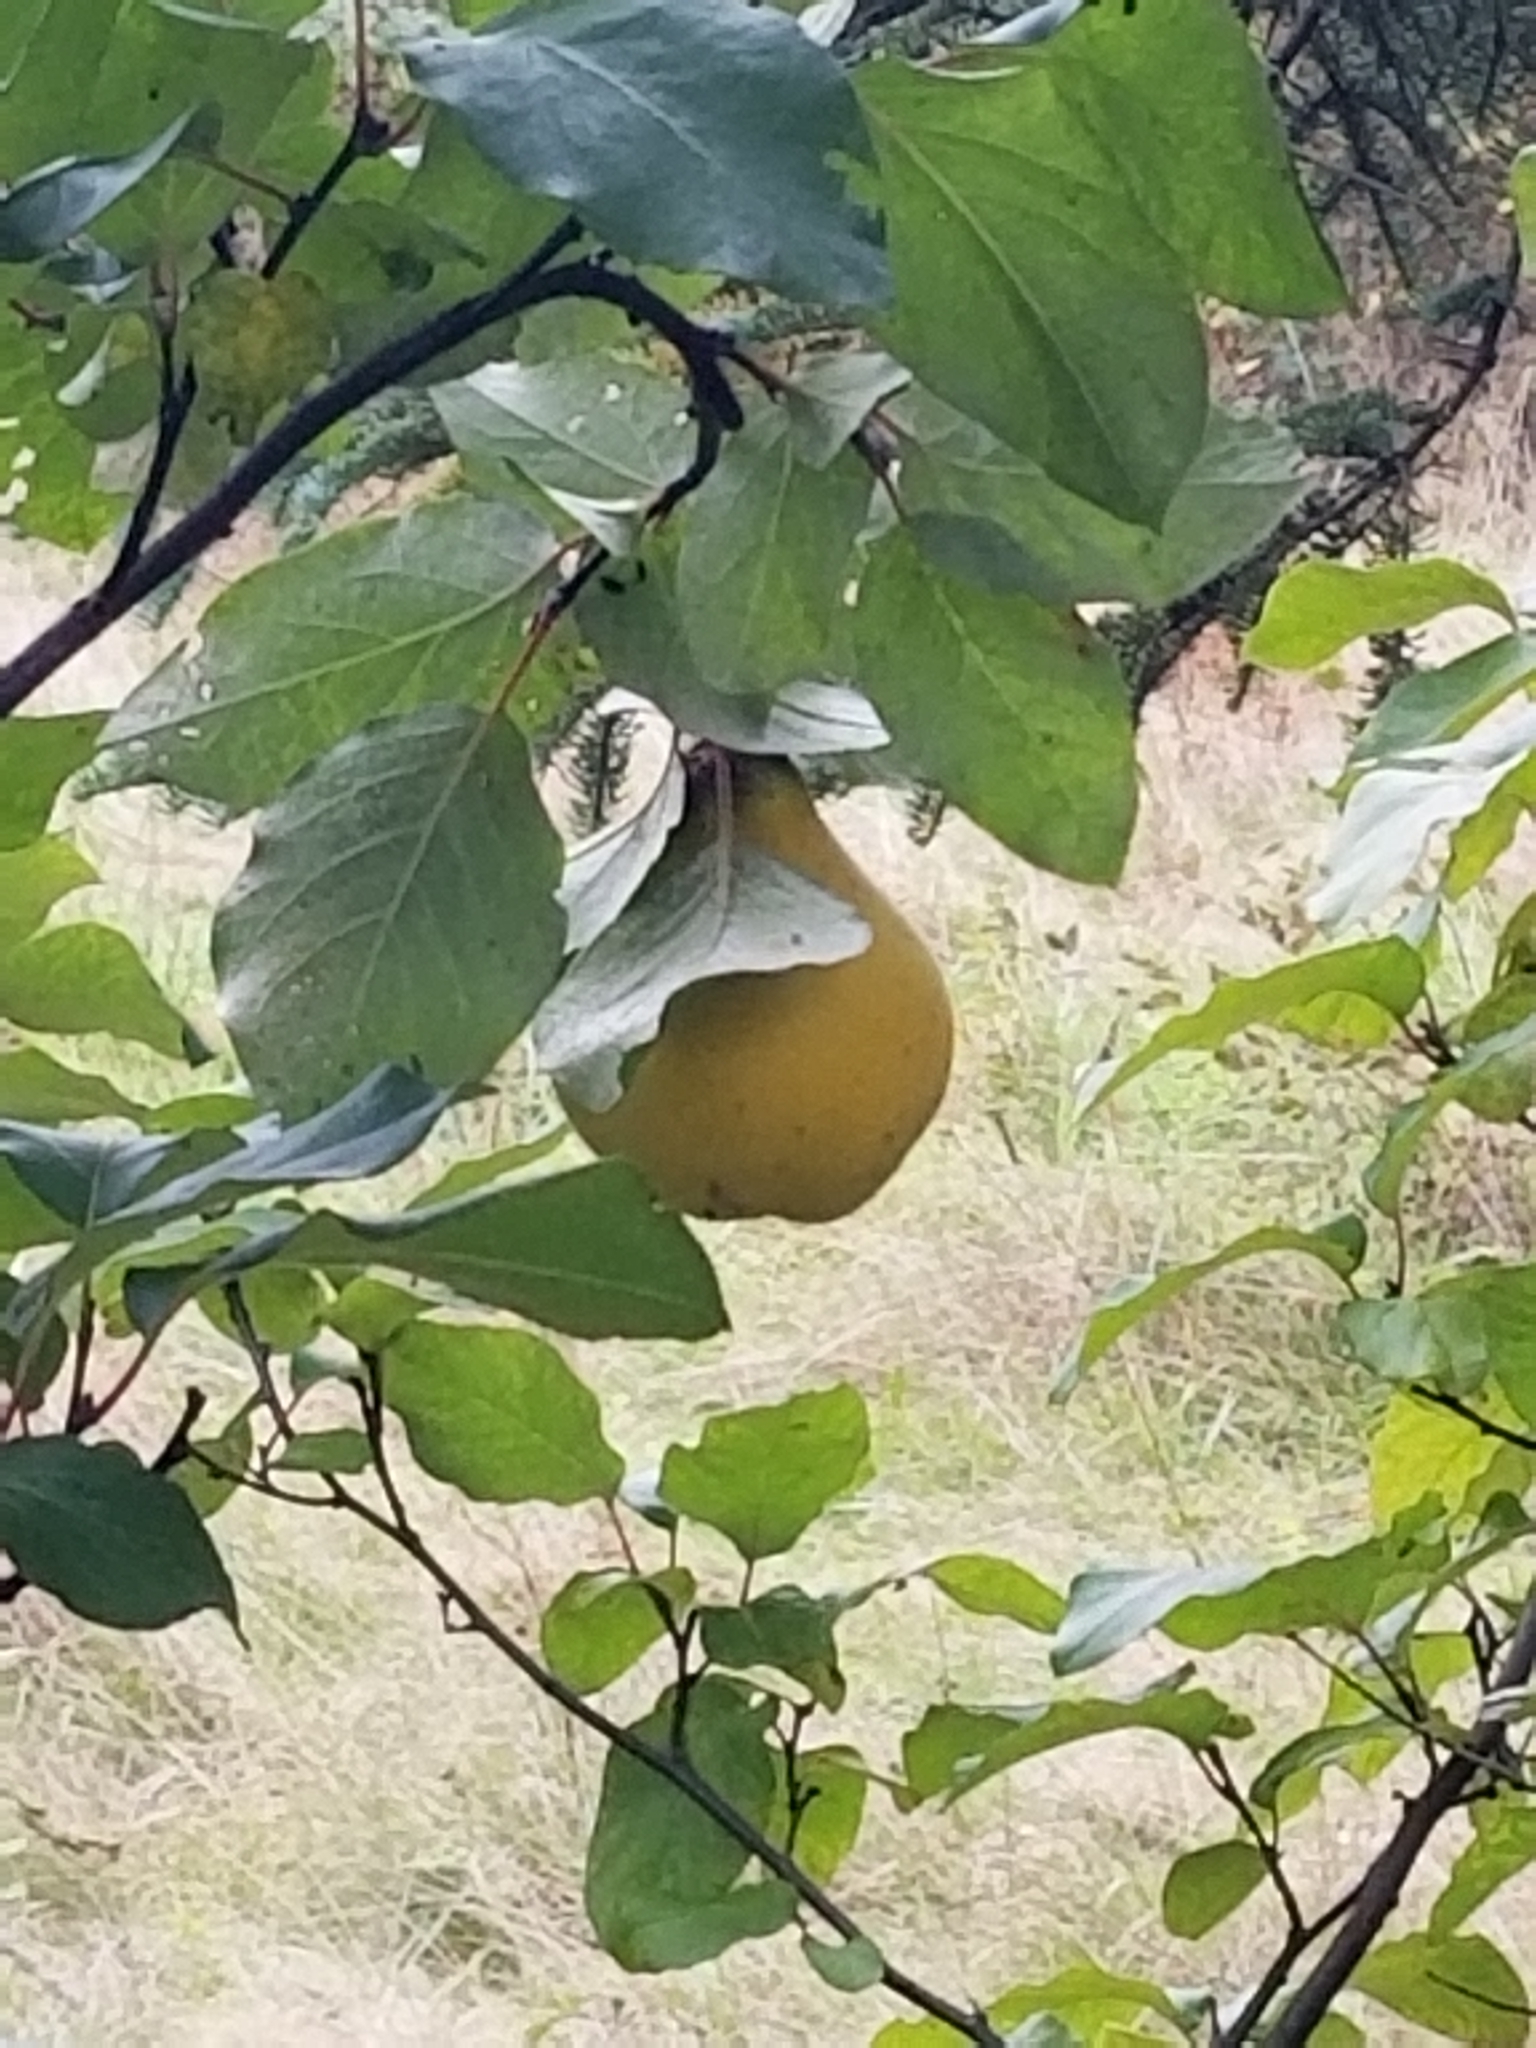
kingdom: Plantae
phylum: Tracheophyta
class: Magnoliopsida
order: Rosales
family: Rosaceae
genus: Cydonia
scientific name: Cydonia oblonga
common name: Quince
